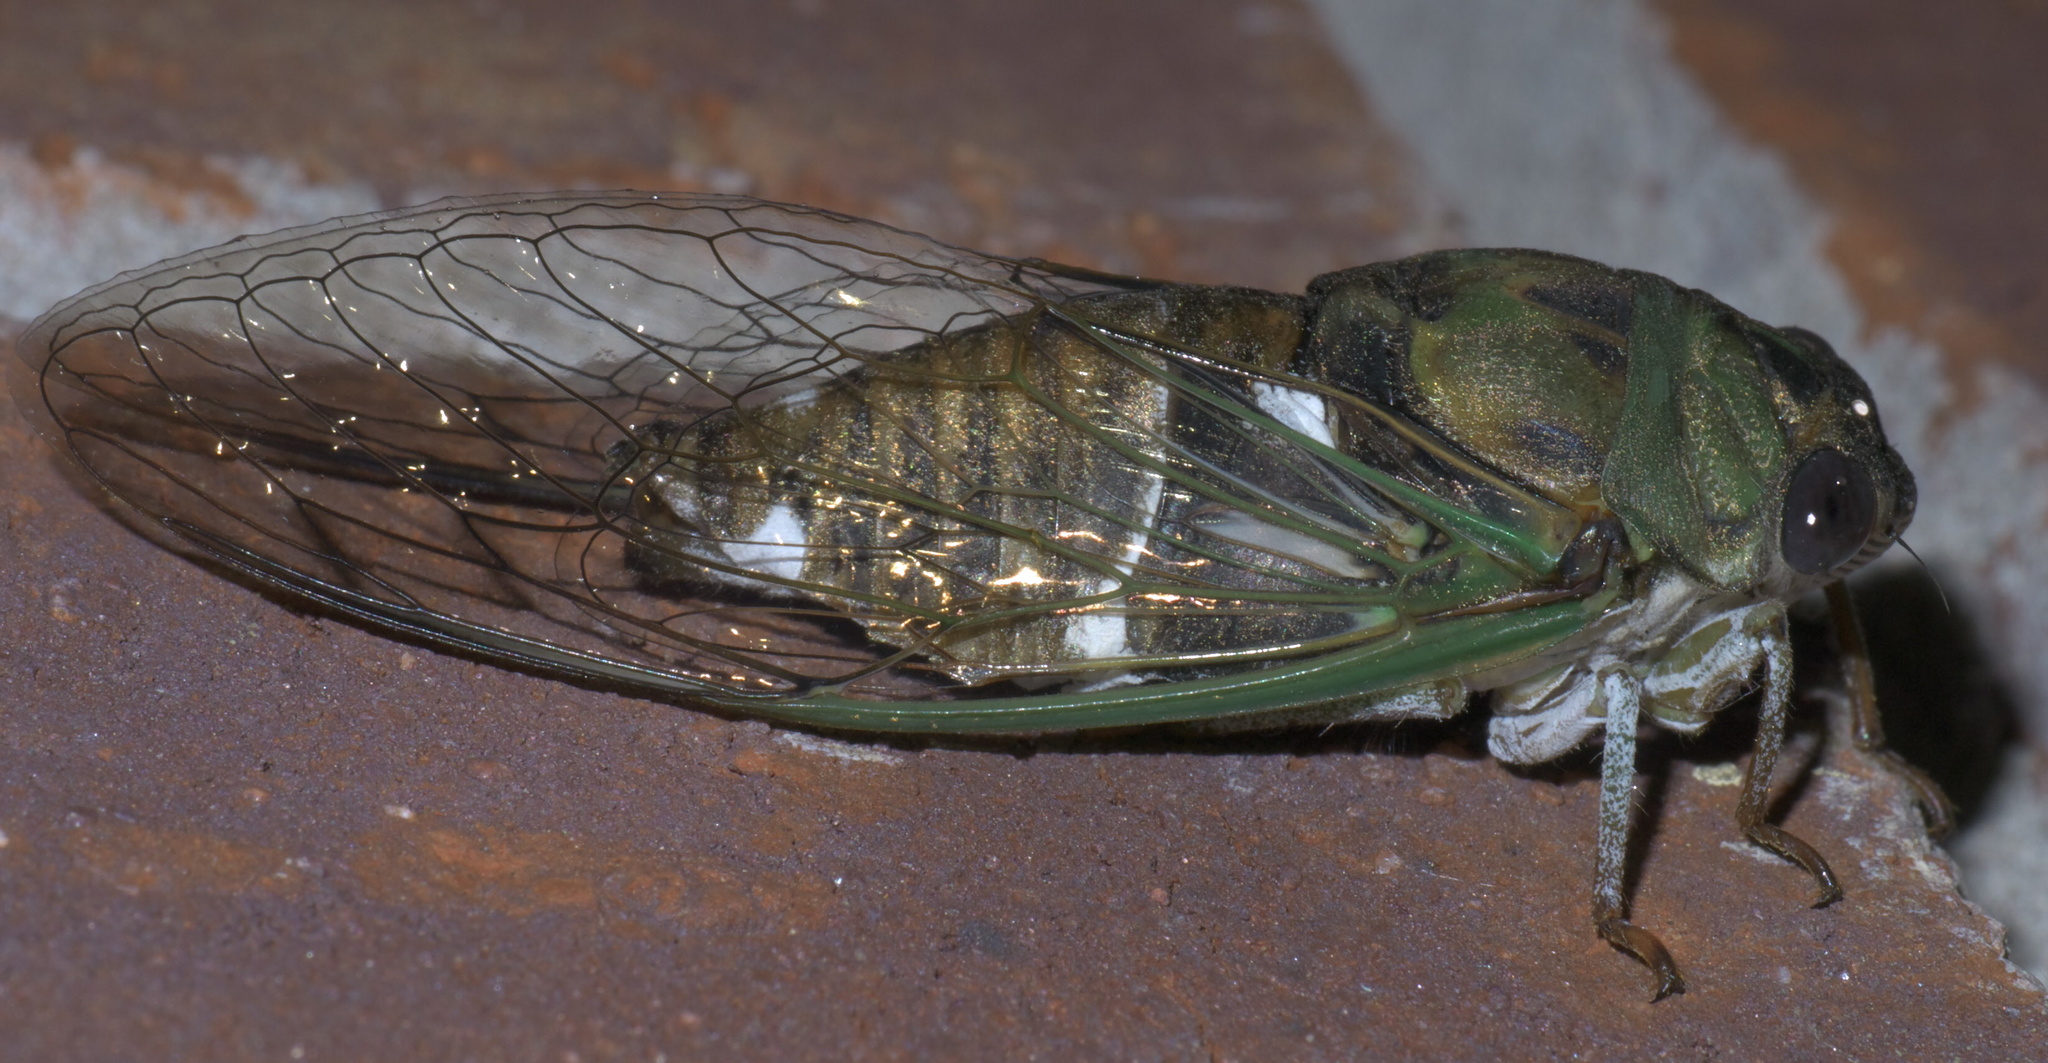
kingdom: Animalia
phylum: Arthropoda
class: Insecta
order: Hemiptera
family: Cicadidae
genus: Neotibicen
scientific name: Neotibicen pruinosus
